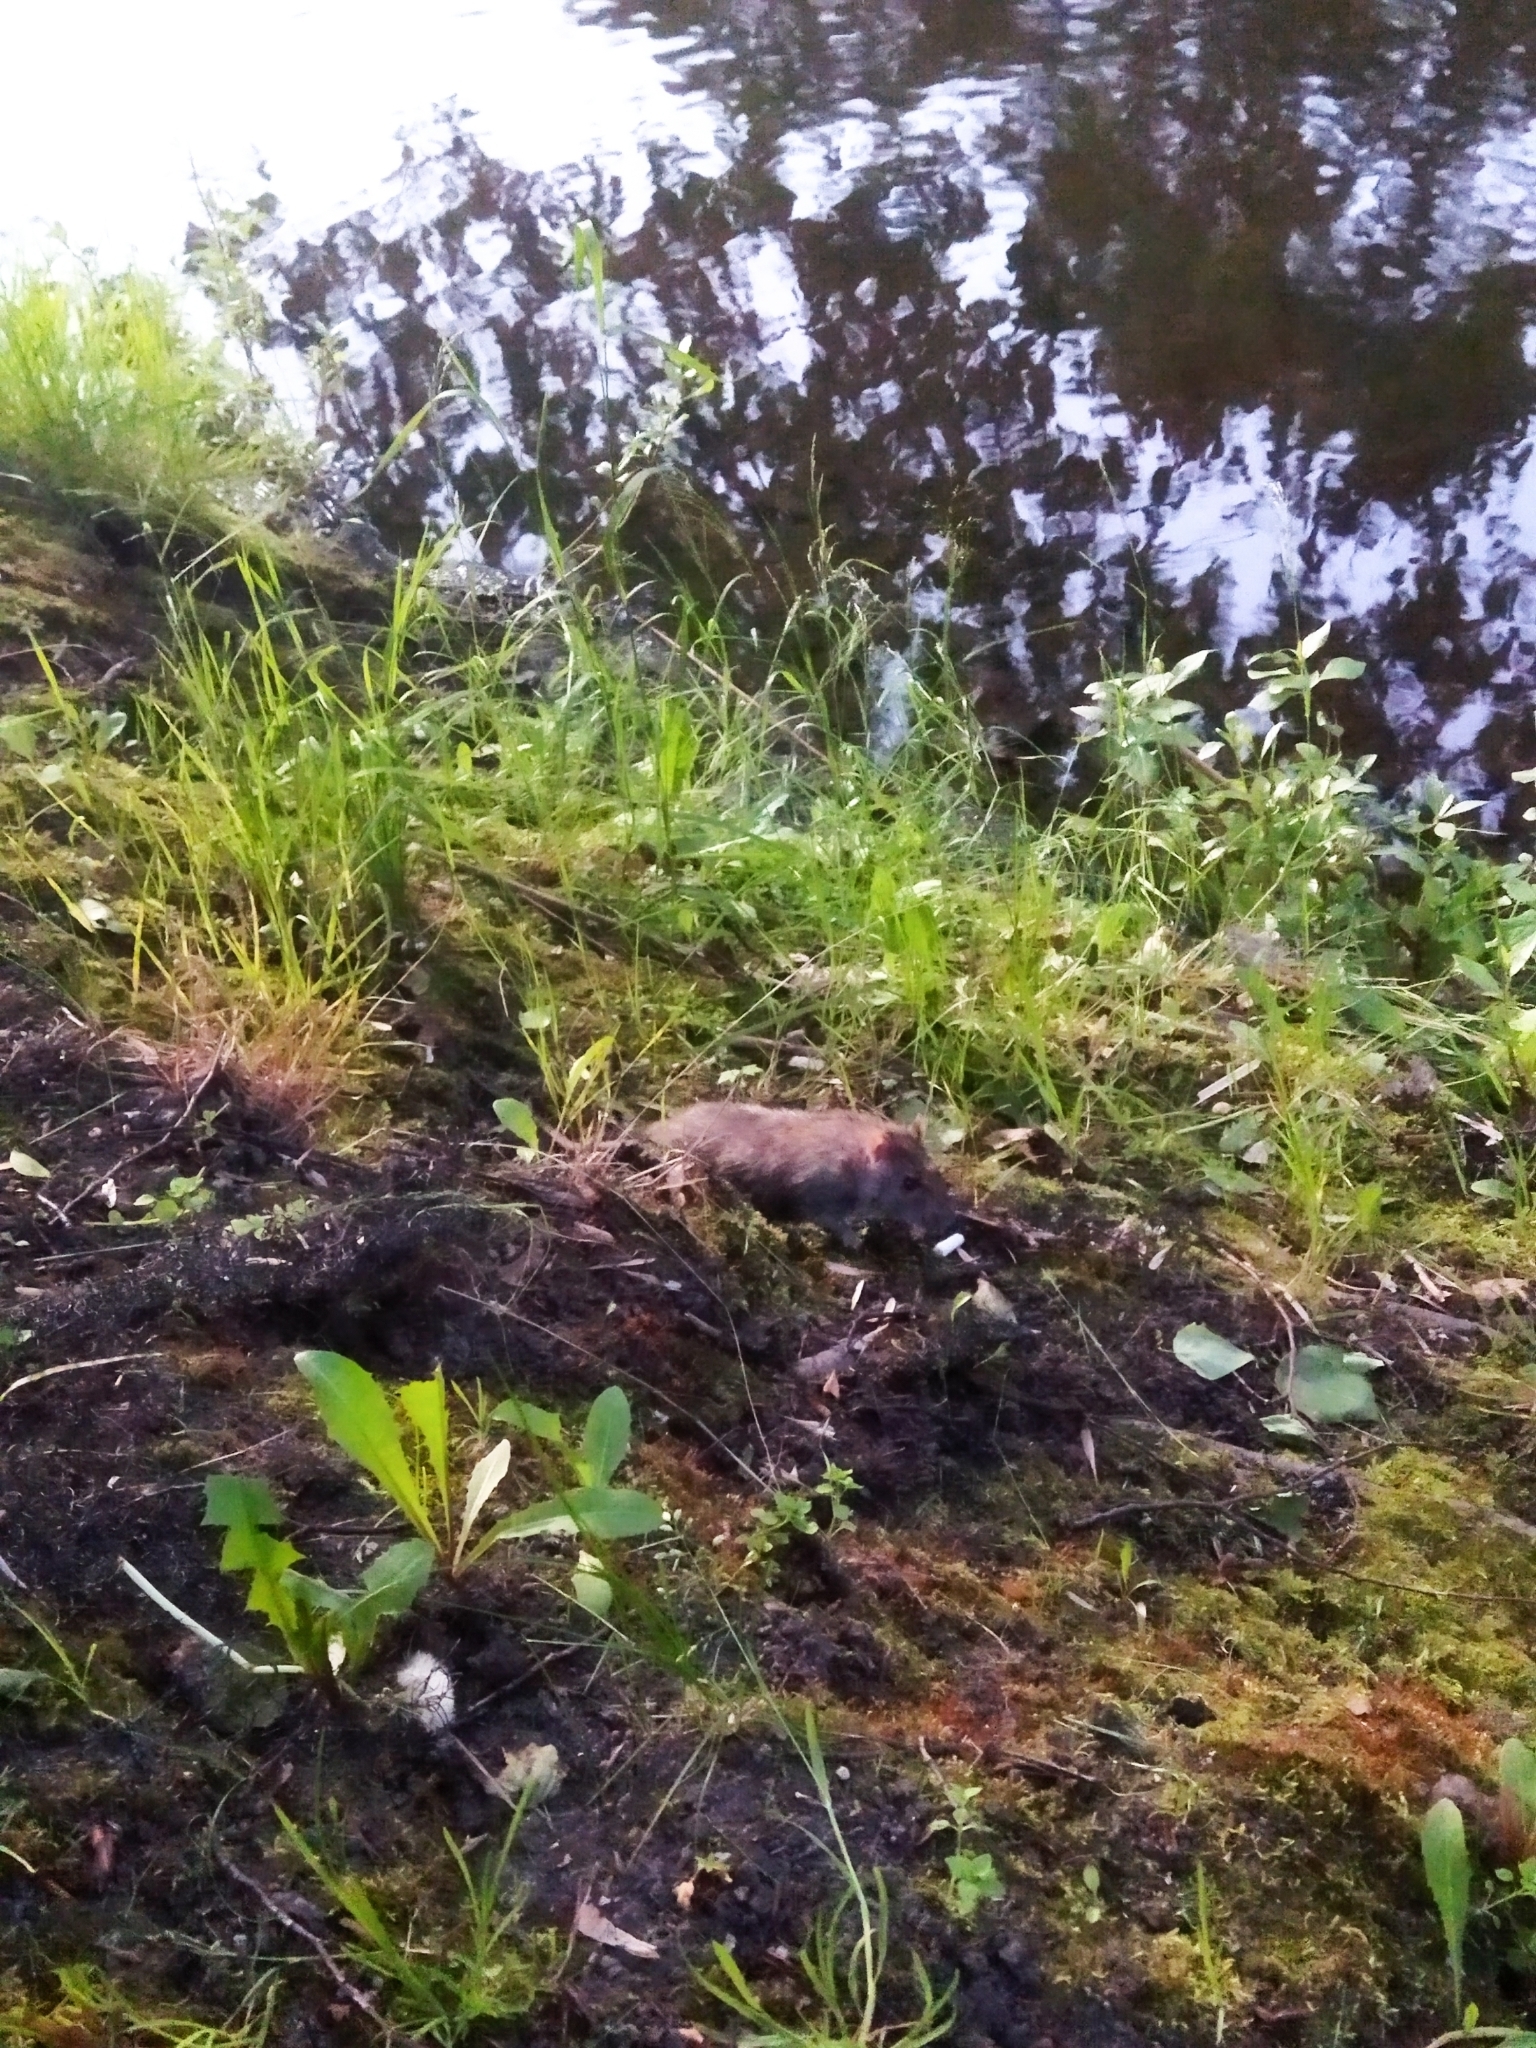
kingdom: Animalia
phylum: Chordata
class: Mammalia
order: Rodentia
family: Muridae
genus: Rattus
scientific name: Rattus norvegicus
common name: Brown rat
